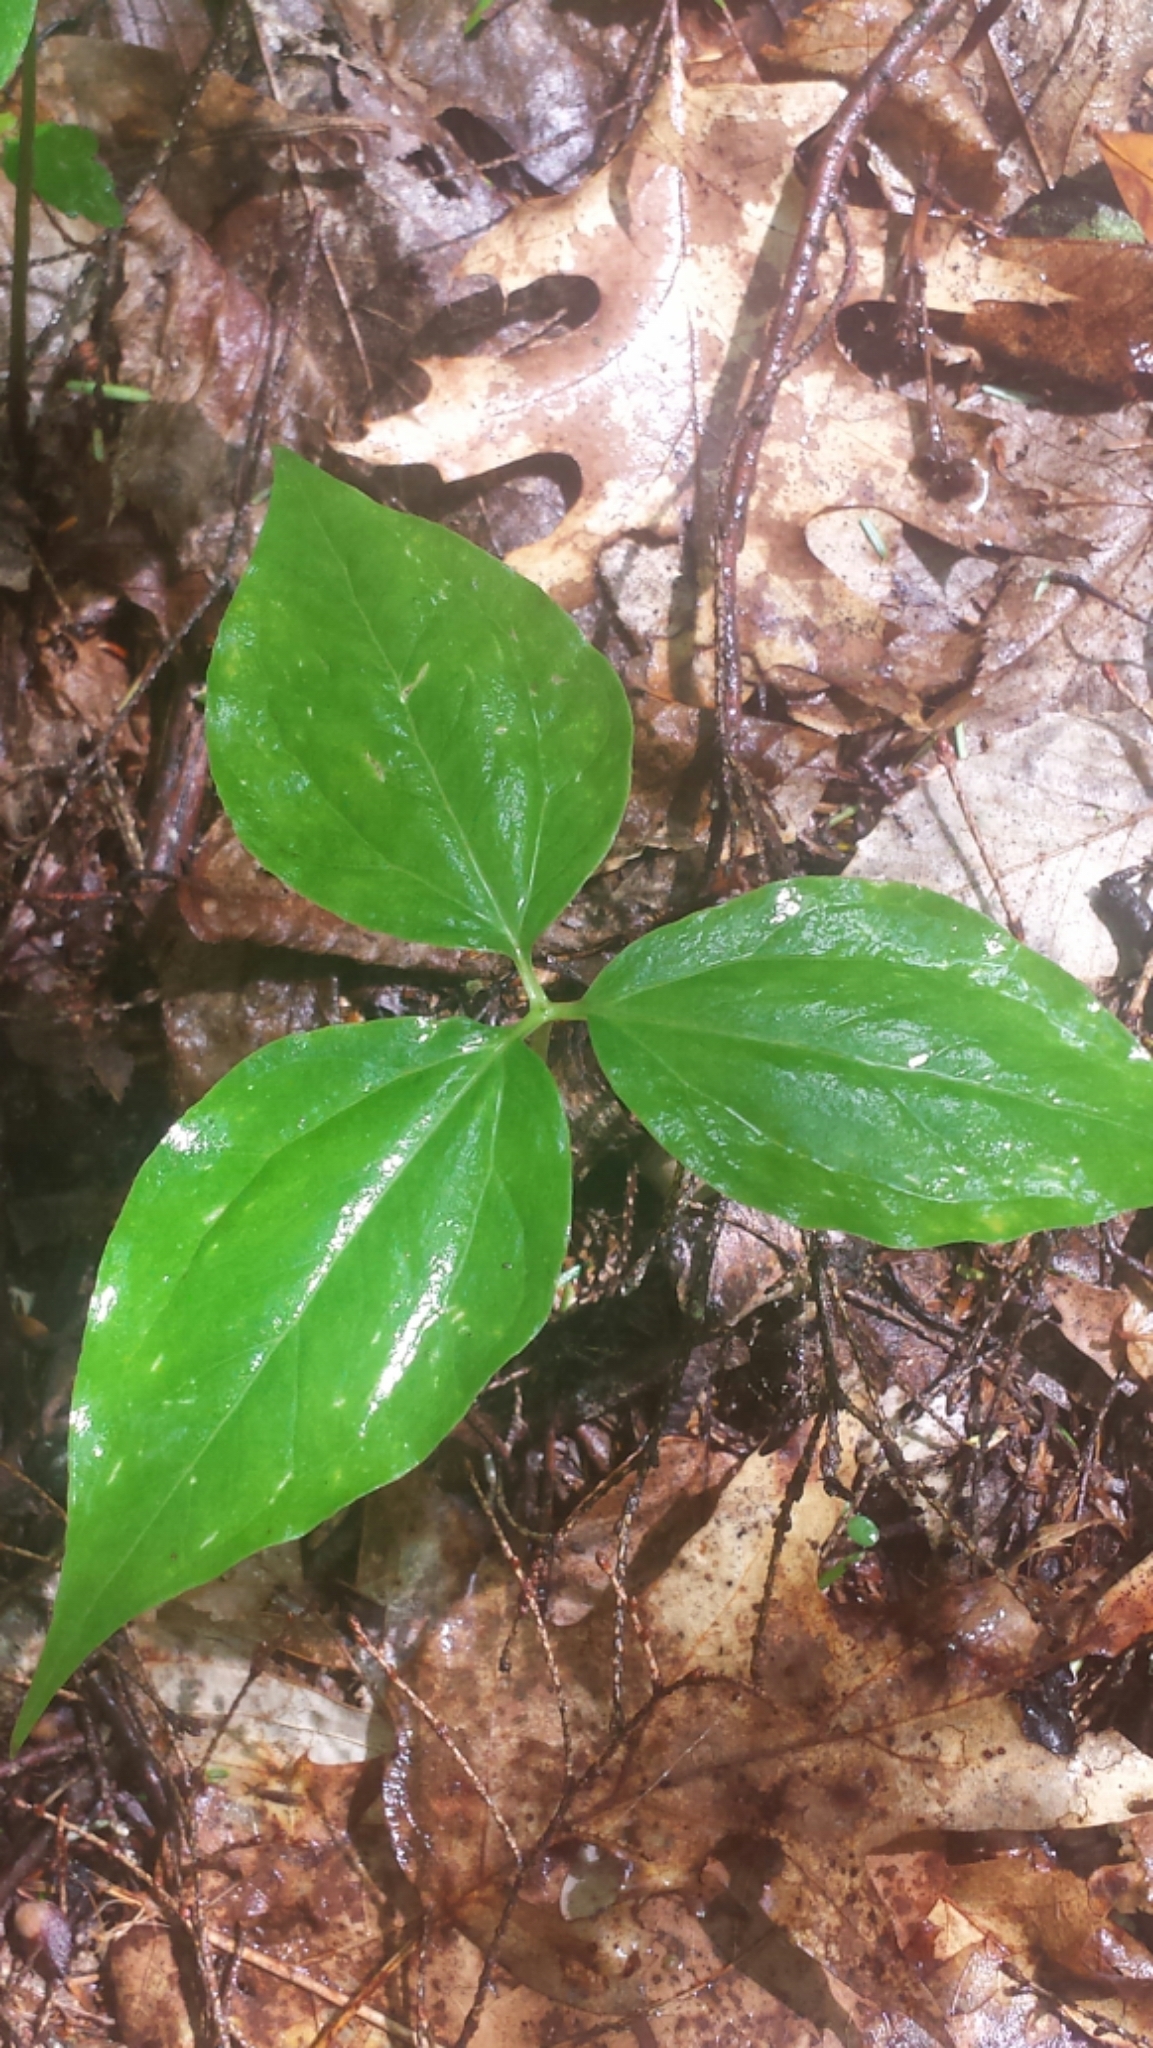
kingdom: Plantae
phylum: Tracheophyta
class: Liliopsida
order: Liliales
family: Melanthiaceae
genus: Trillium
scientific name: Trillium undulatum
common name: Paint trillium
